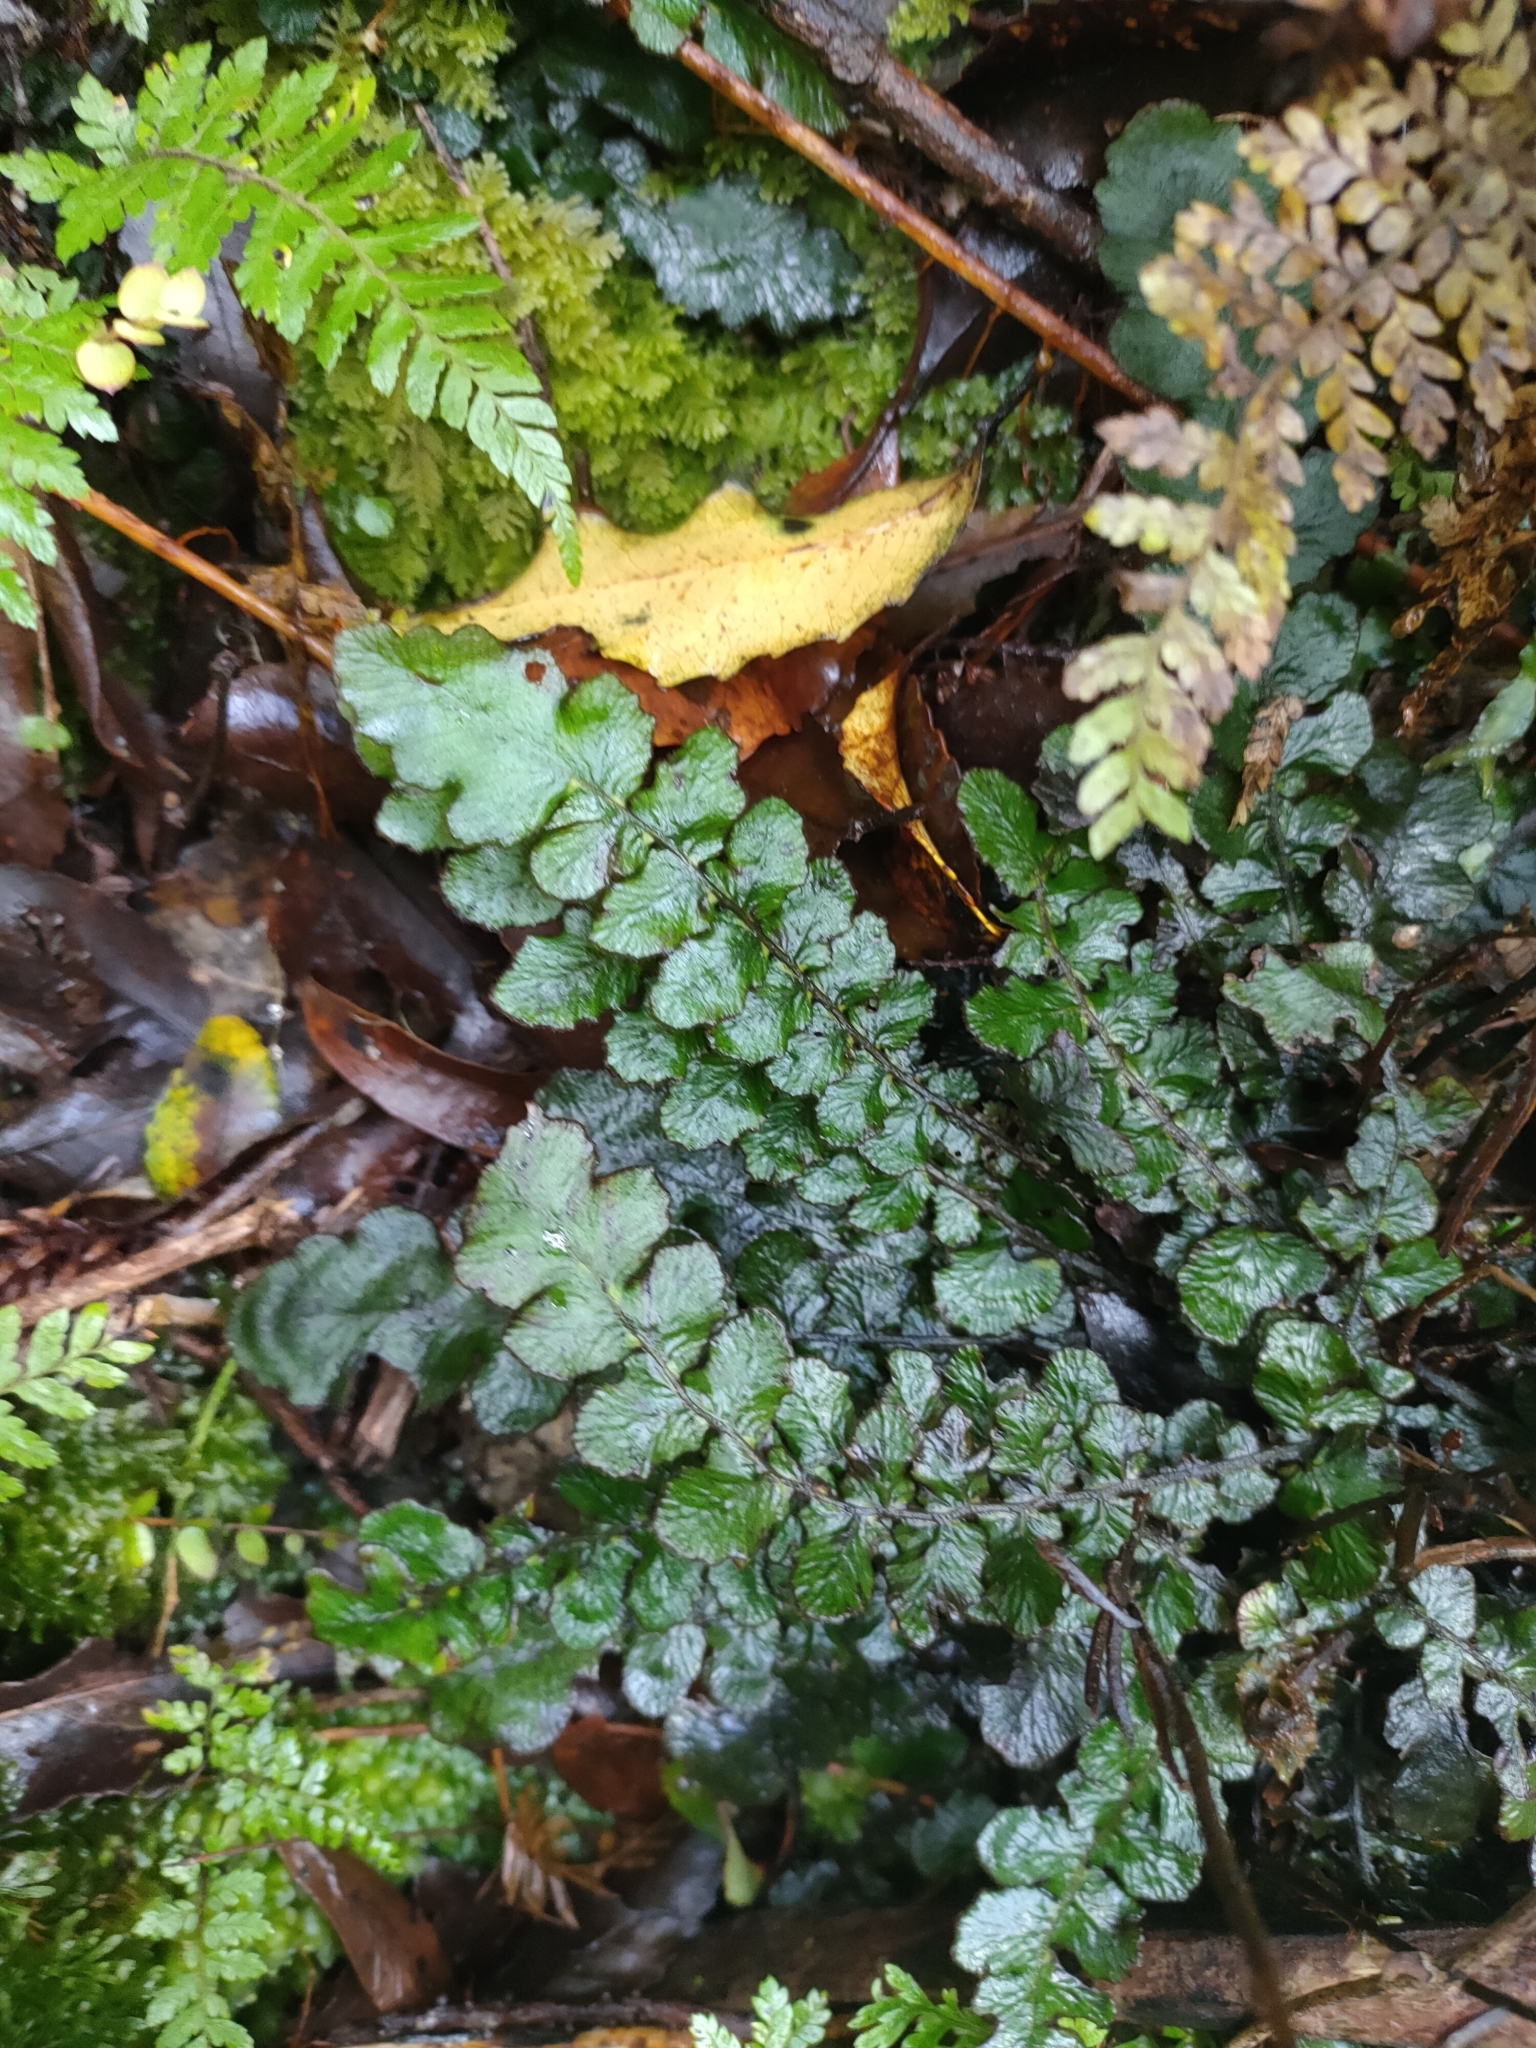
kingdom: Plantae
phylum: Tracheophyta
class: Polypodiopsida
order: Polypodiales
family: Blechnaceae
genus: Cranfillia
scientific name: Cranfillia nigra
